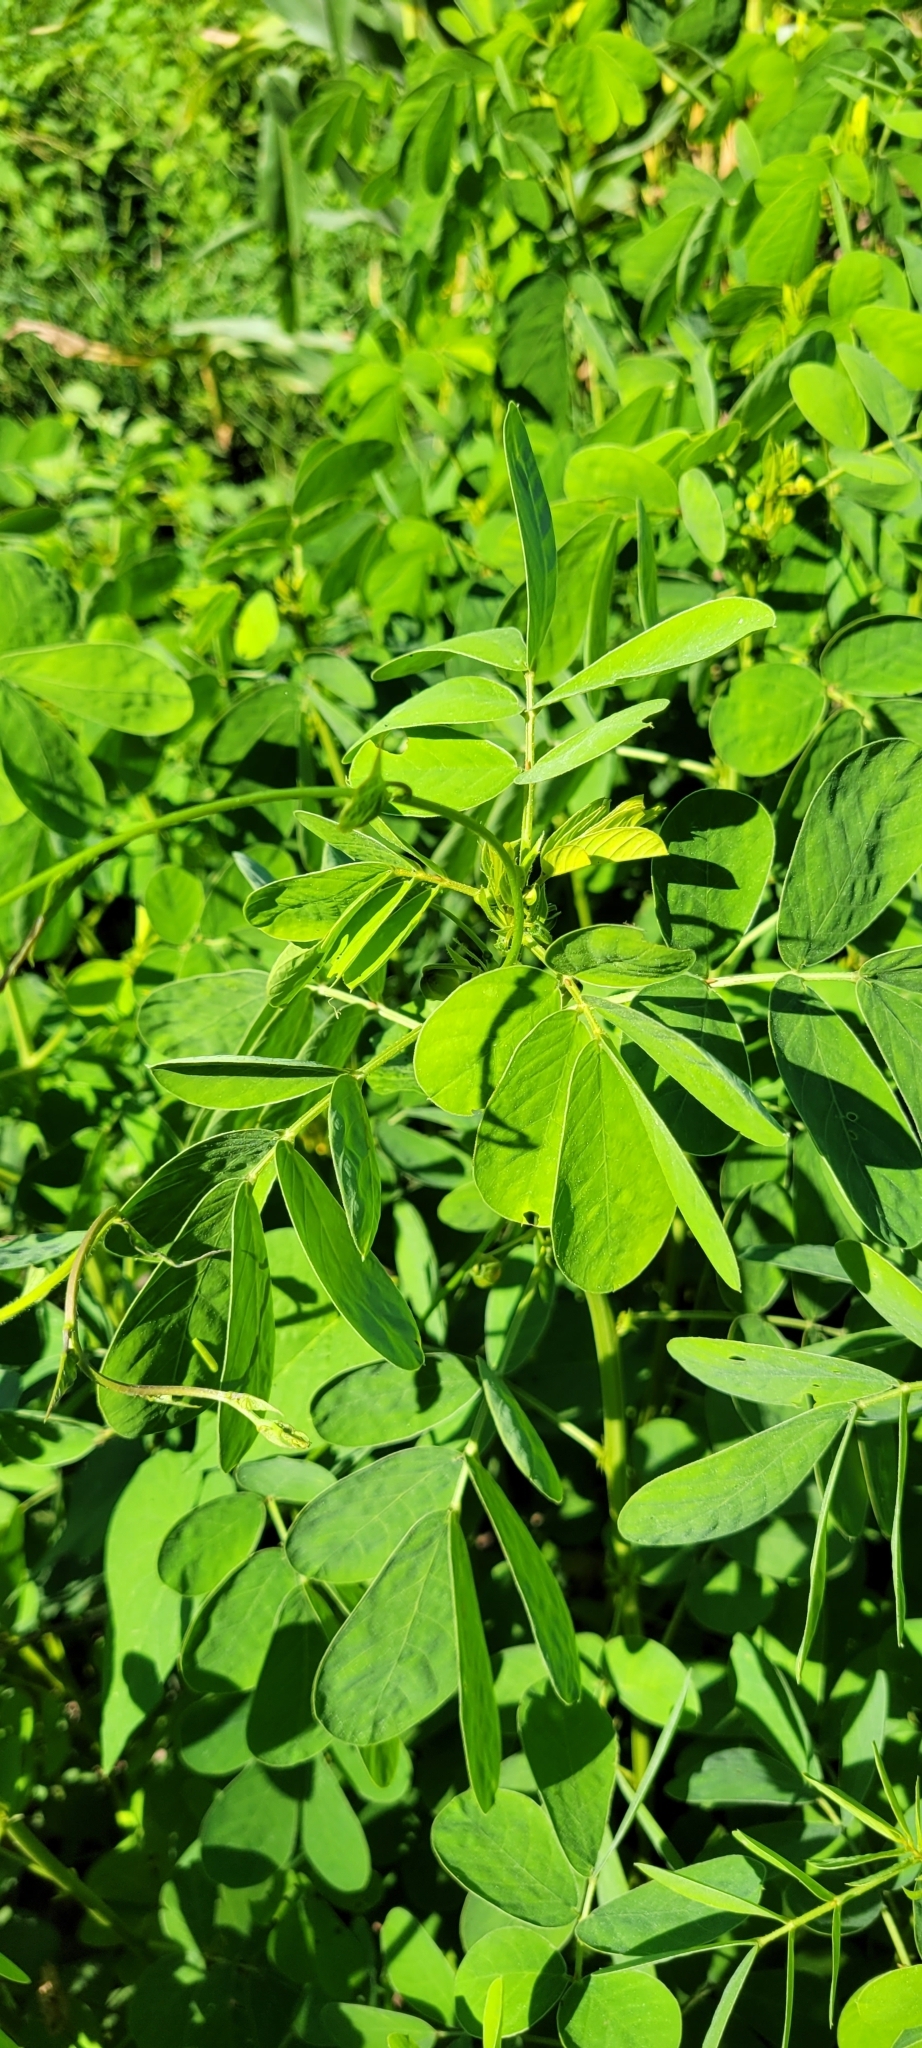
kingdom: Plantae
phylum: Tracheophyta
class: Magnoliopsida
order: Fabales
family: Fabaceae
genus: Senna
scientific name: Senna obtusifolia
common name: Java-bean
